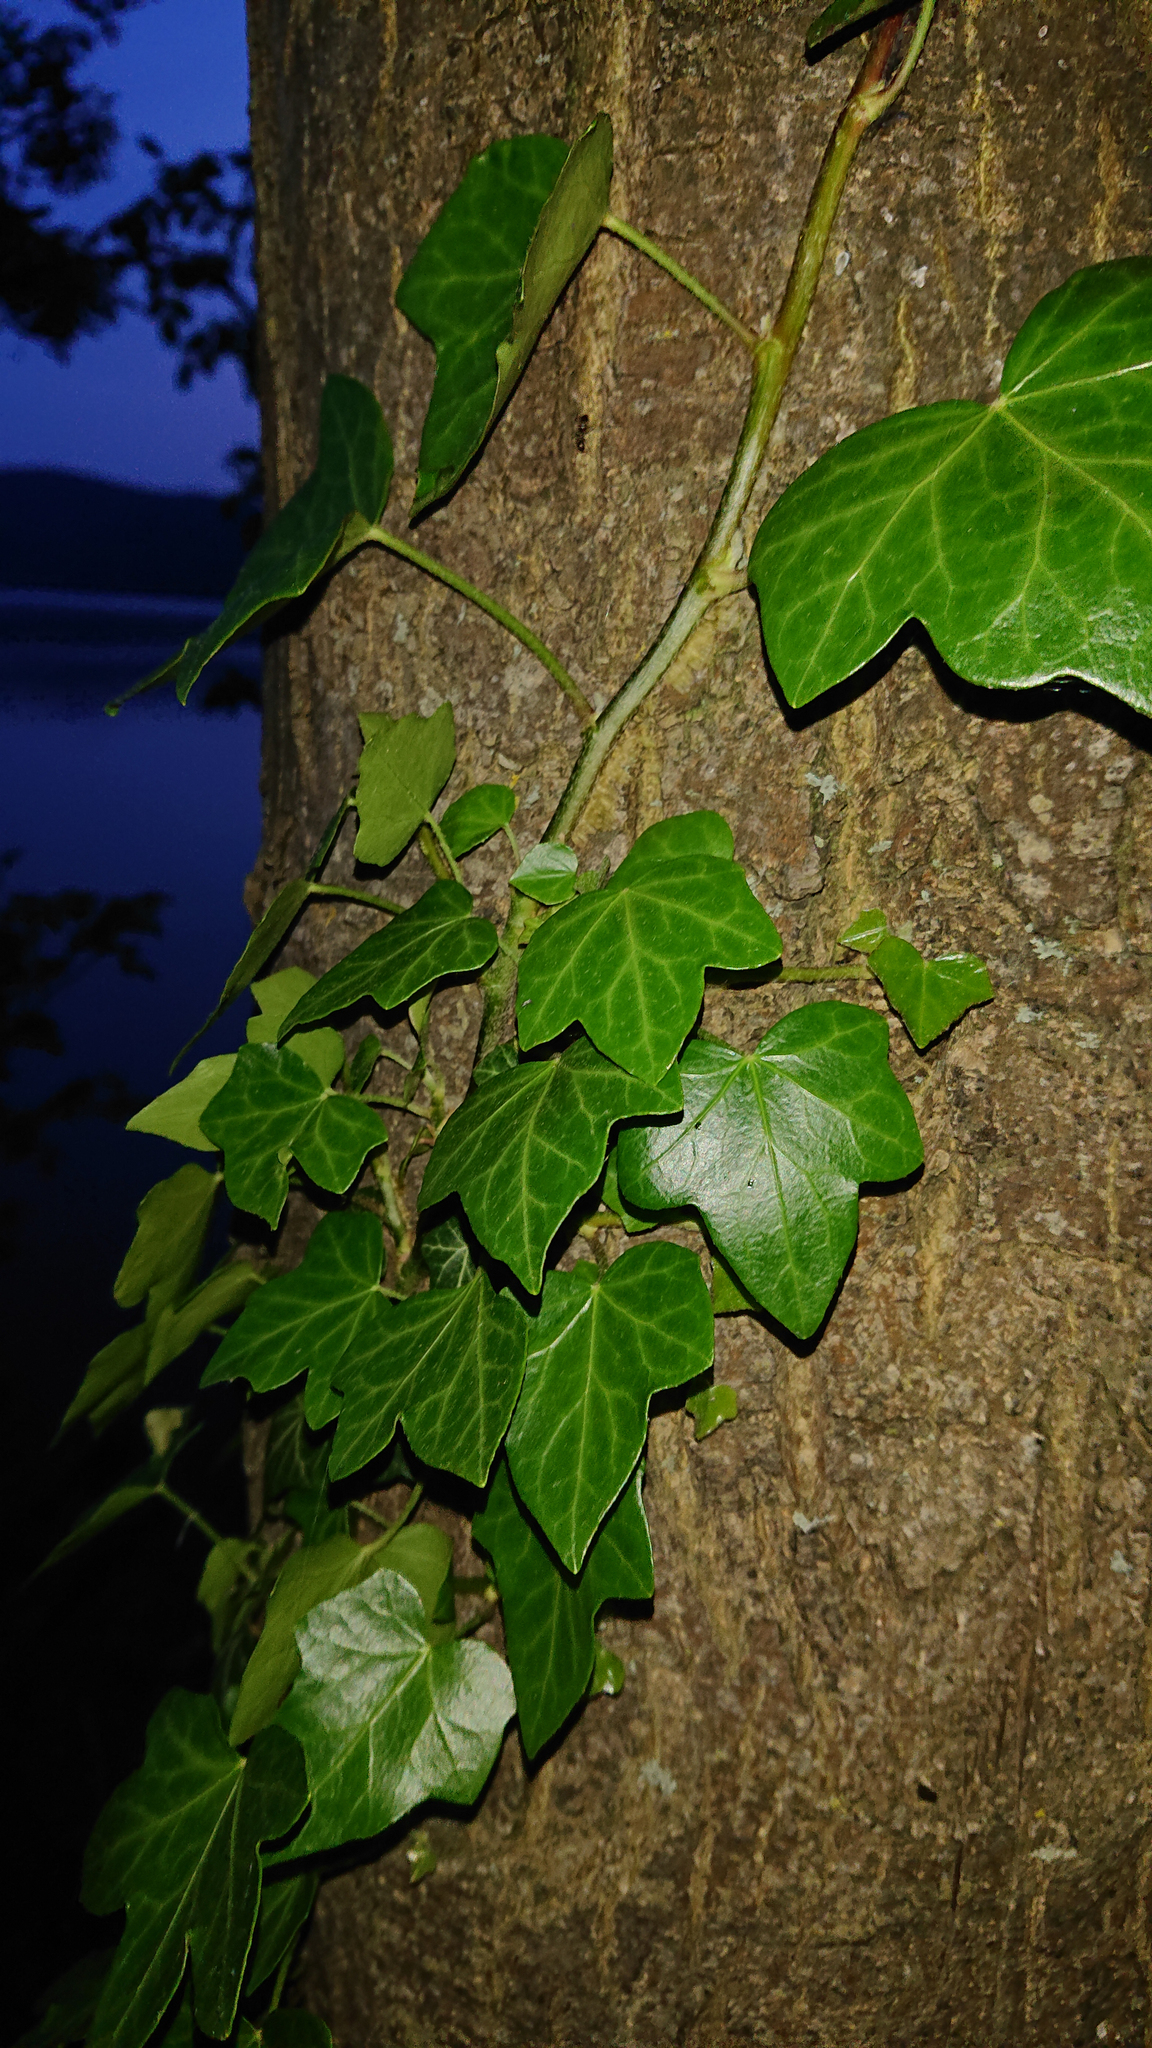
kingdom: Plantae
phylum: Tracheophyta
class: Magnoliopsida
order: Apiales
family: Araliaceae
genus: Hedera
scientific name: Hedera helix
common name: Ivy
